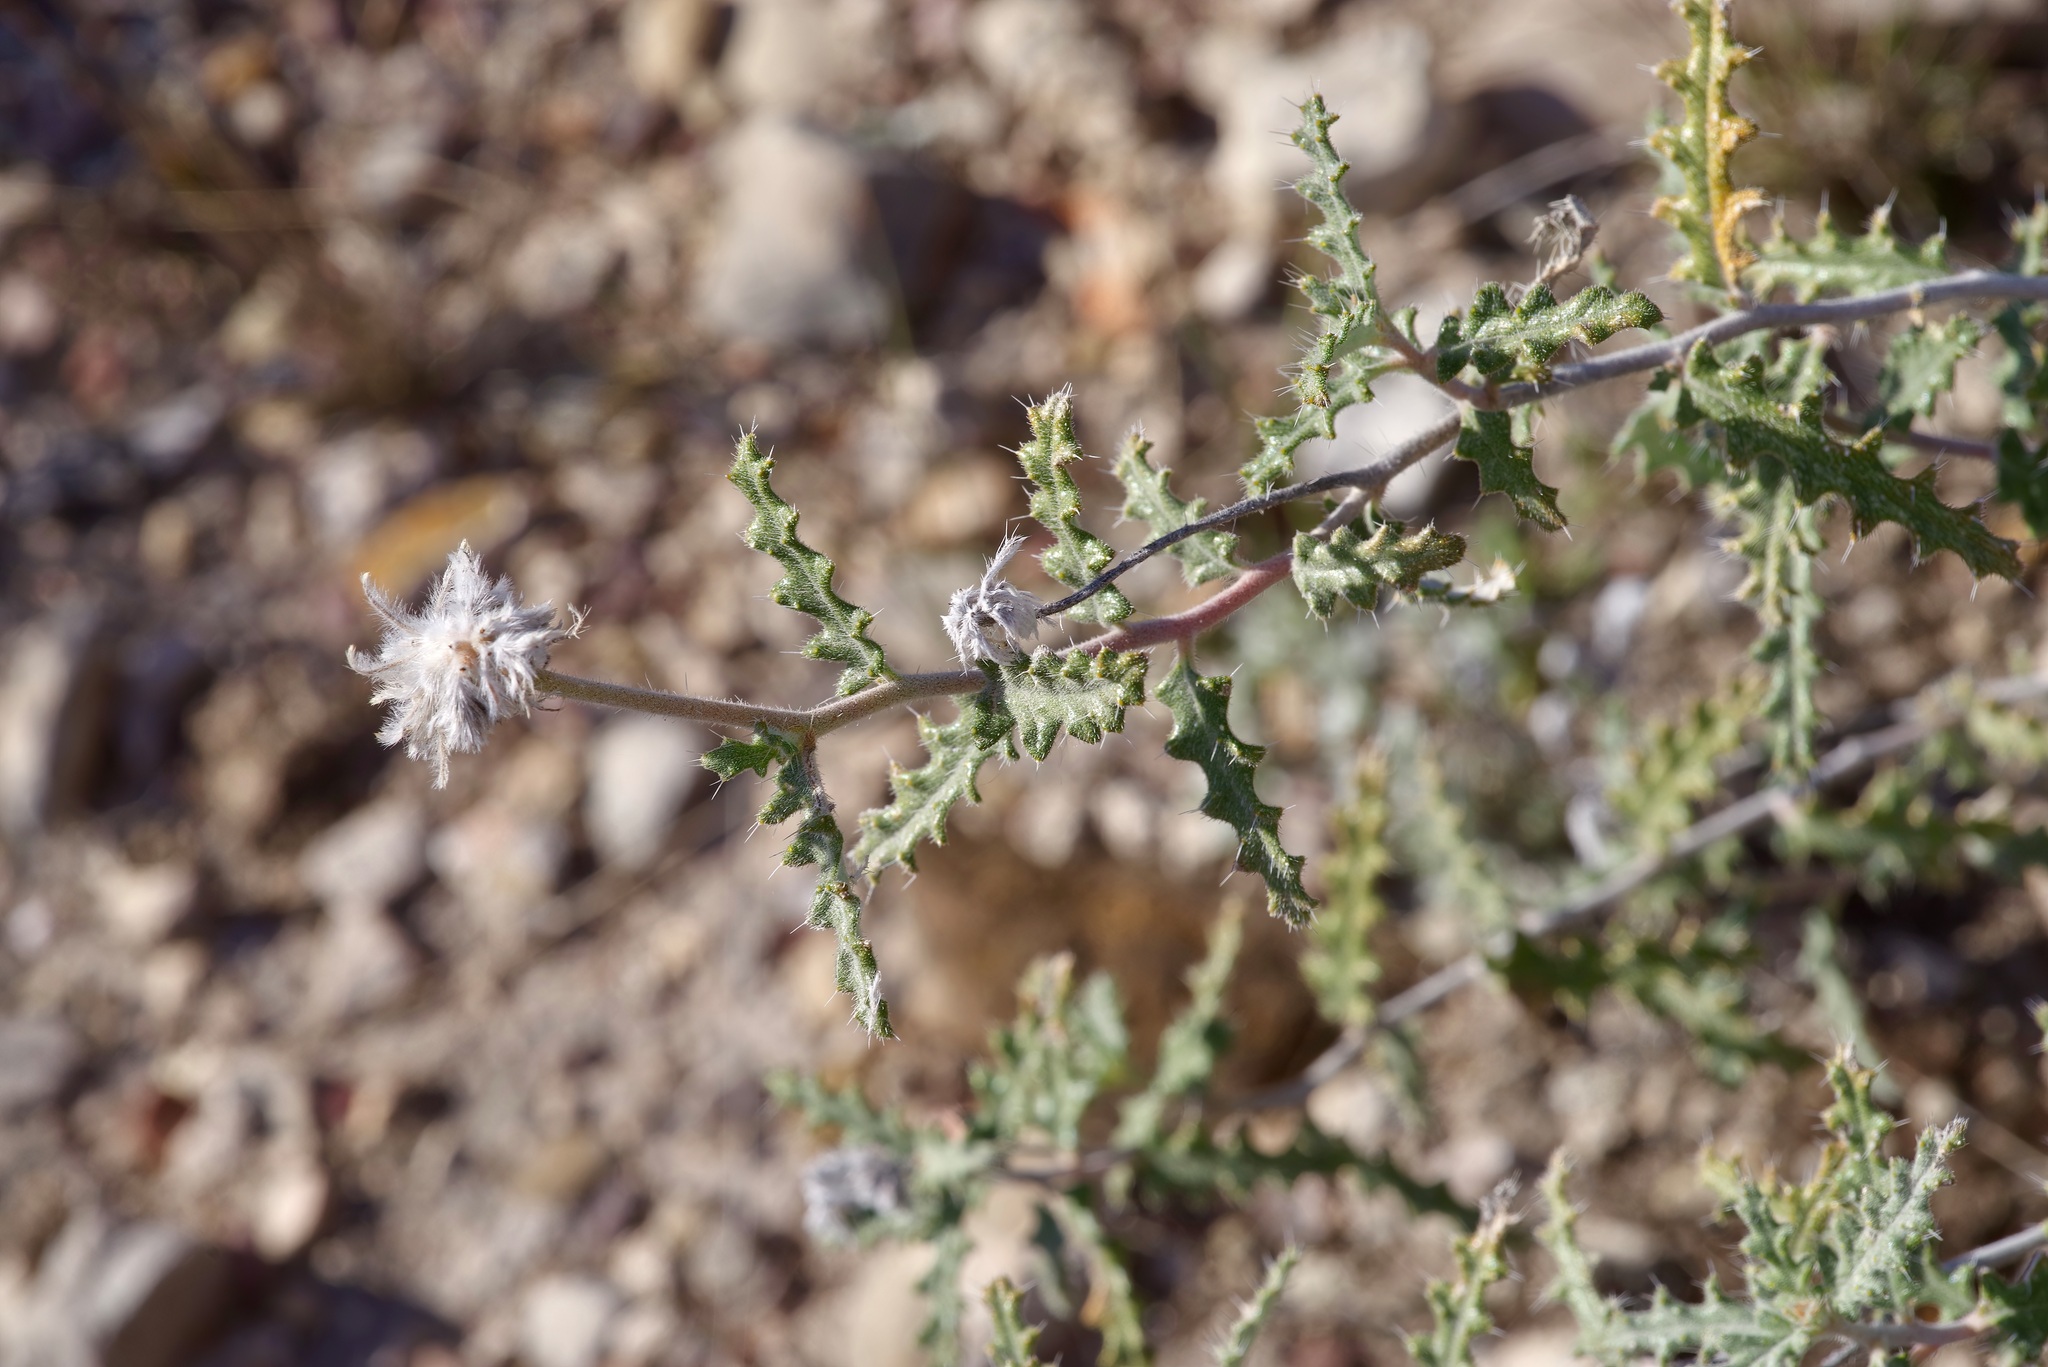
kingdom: Plantae
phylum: Tracheophyta
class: Magnoliopsida
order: Cornales
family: Loasaceae
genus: Cevallia
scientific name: Cevallia sinuata
